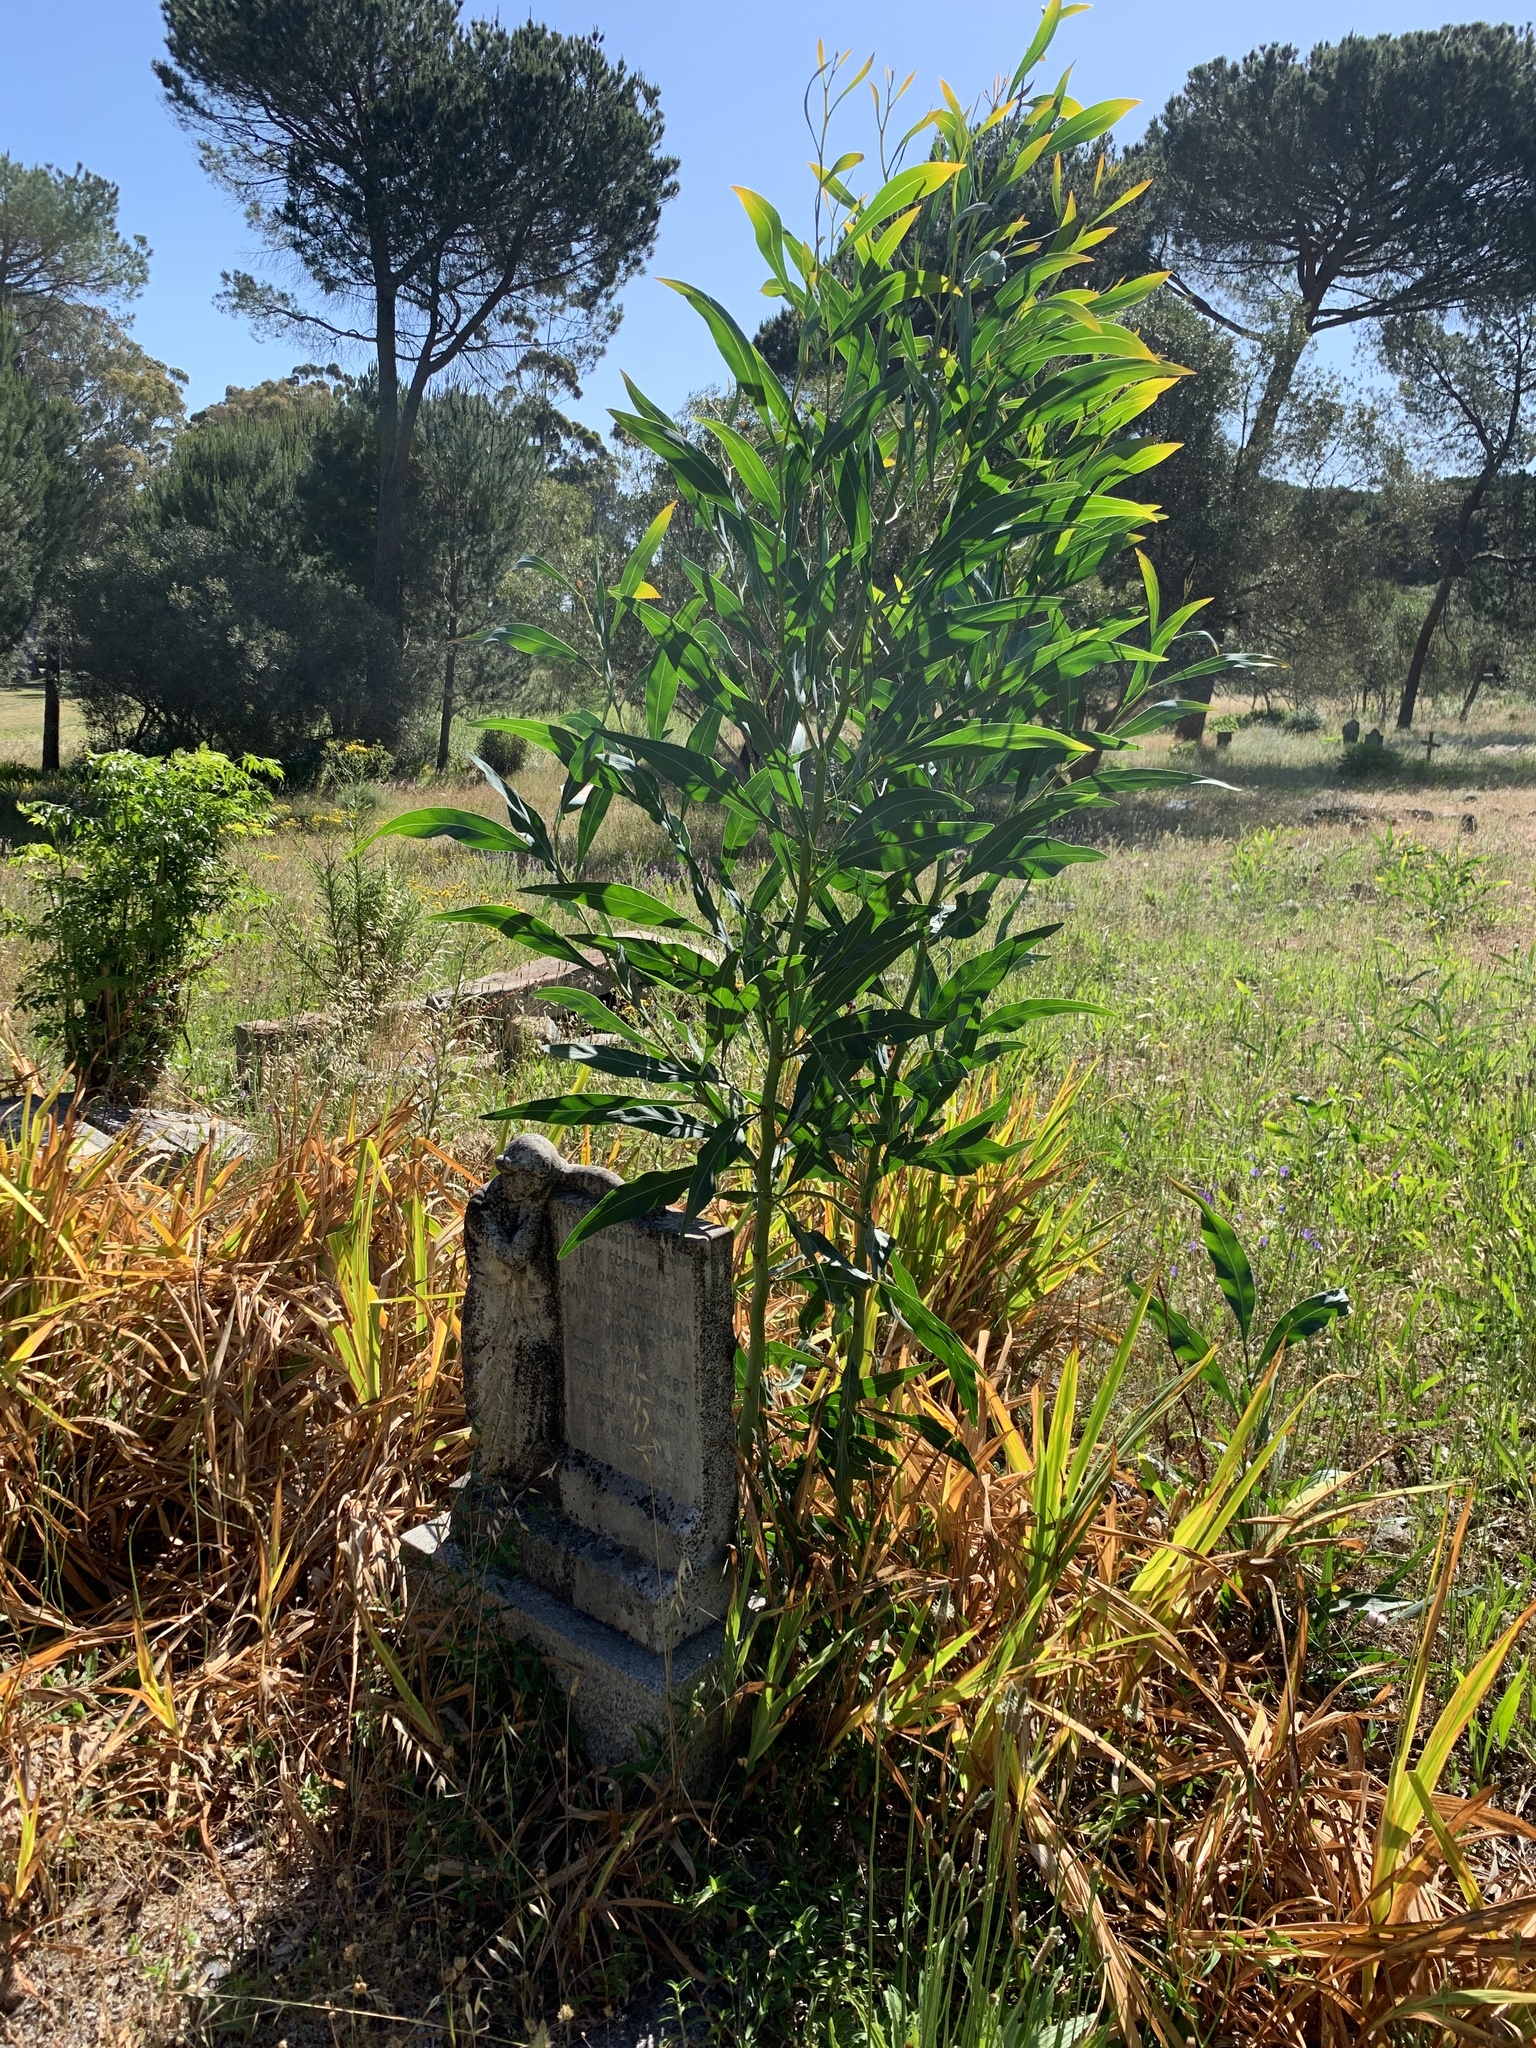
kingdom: Plantae
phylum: Tracheophyta
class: Magnoliopsida
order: Fabales
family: Fabaceae
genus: Acacia
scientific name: Acacia saligna
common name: Orange wattle
